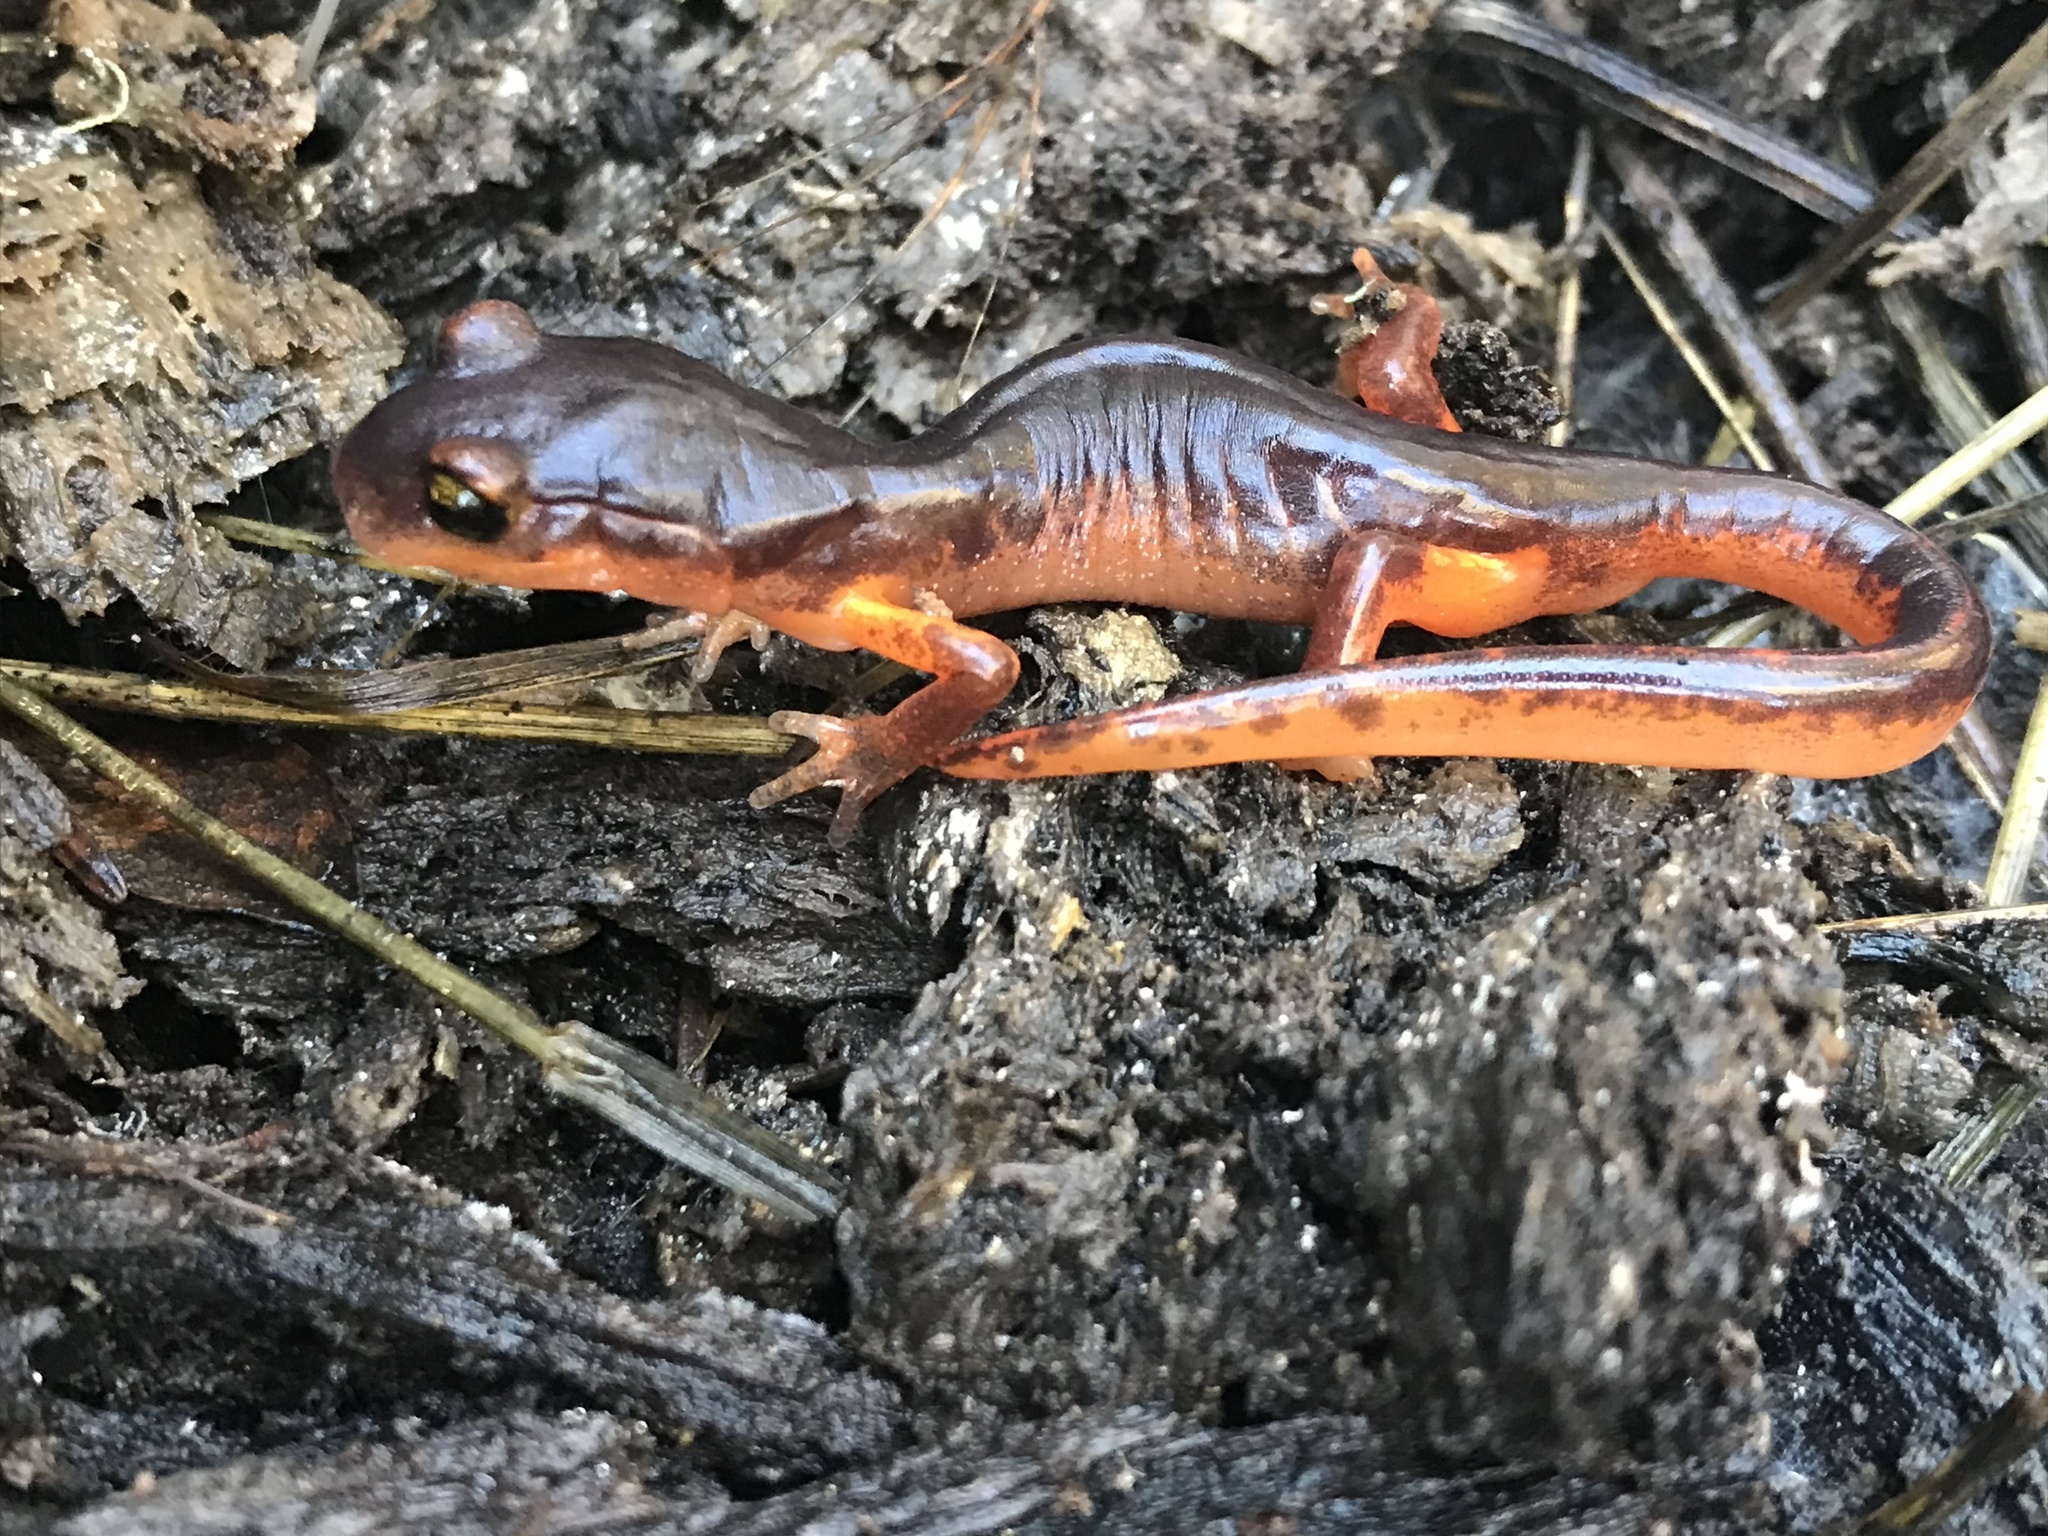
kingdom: Animalia
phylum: Chordata
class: Amphibia
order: Caudata
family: Plethodontidae
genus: Ensatina
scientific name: Ensatina eschscholtzii
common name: Ensatina
